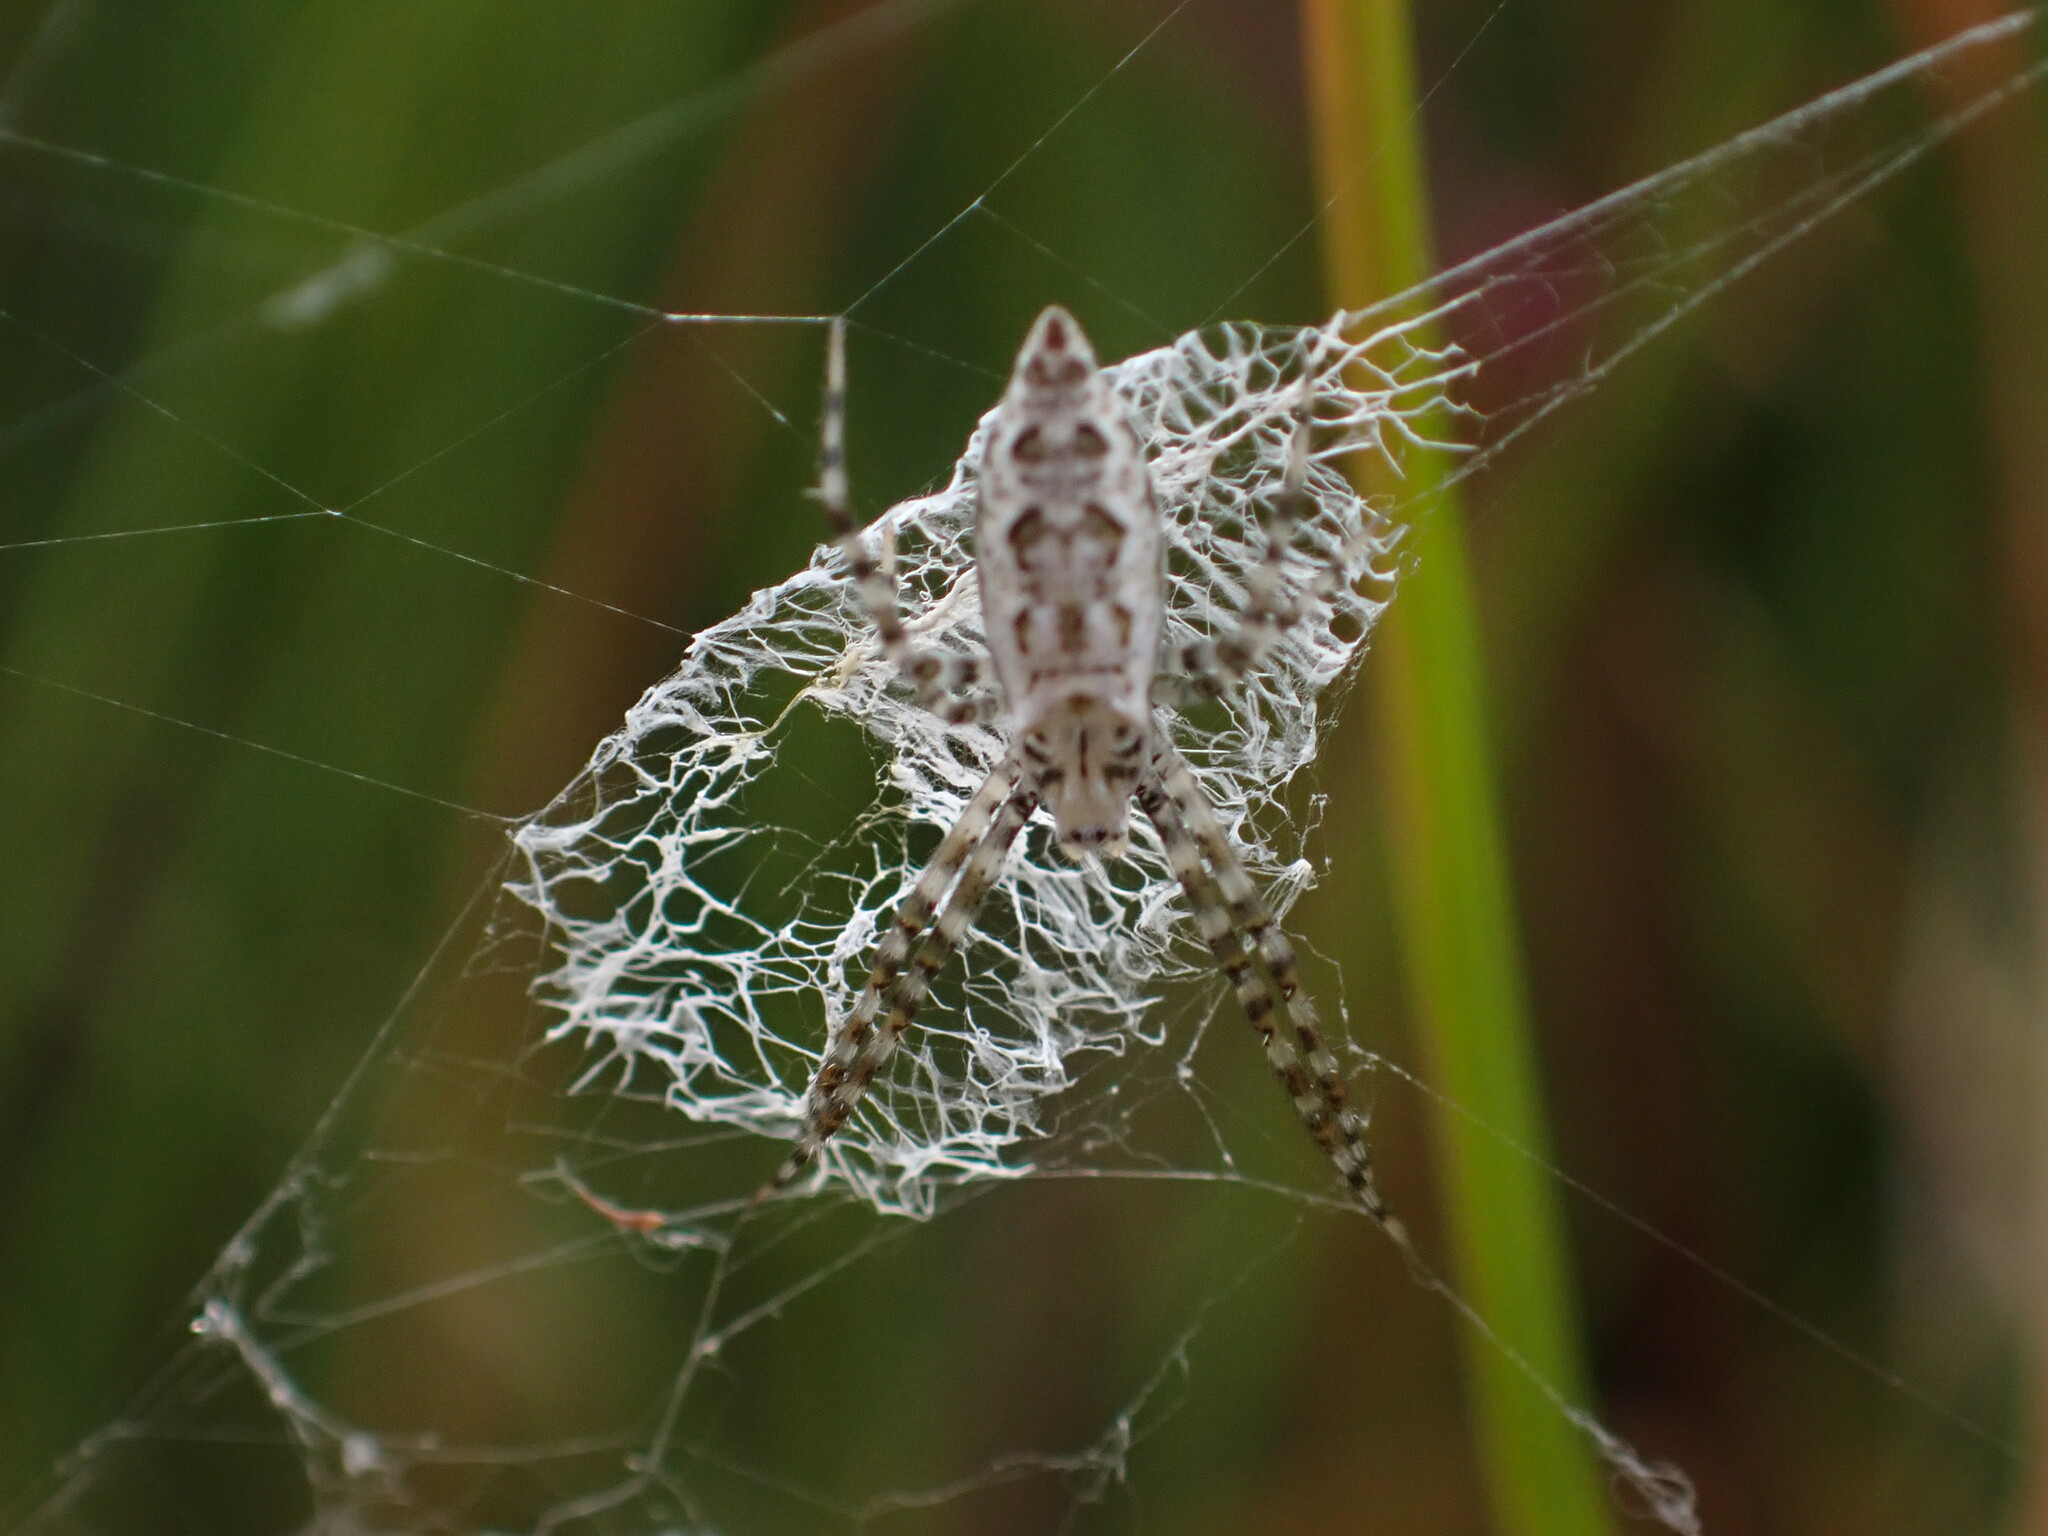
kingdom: Animalia
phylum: Arthropoda
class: Arachnida
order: Araneae
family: Araneidae
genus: Argiope
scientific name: Argiope aurantia
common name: Orb weavers
